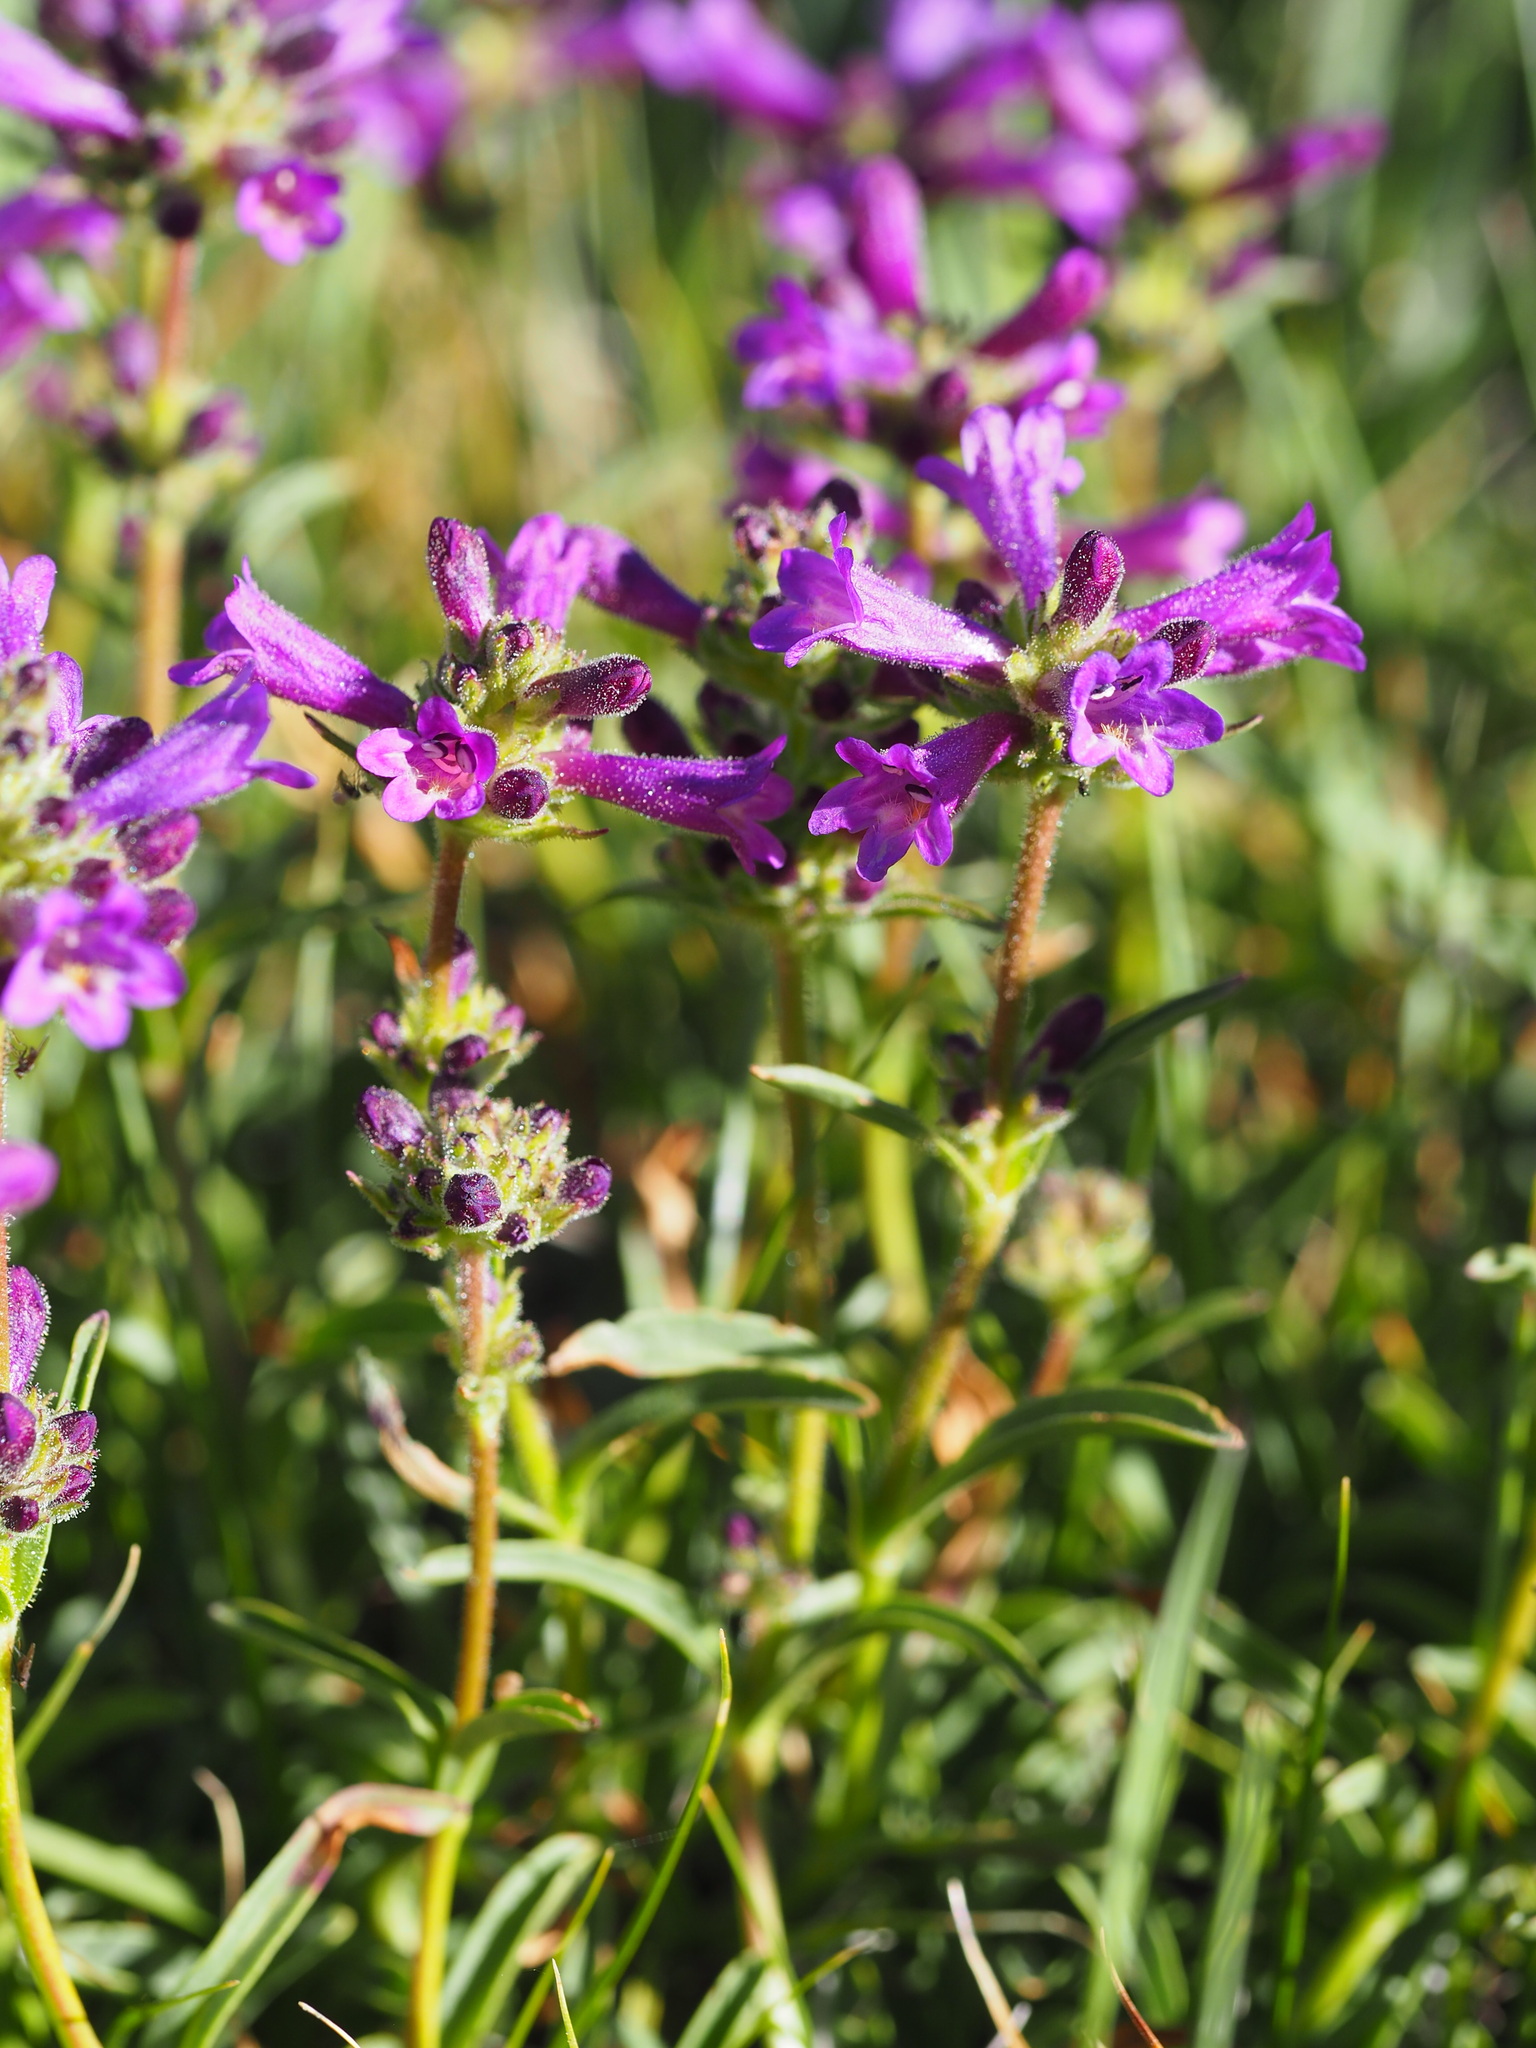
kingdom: Plantae
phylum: Tracheophyta
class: Magnoliopsida
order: Lamiales
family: Plantaginaceae
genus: Penstemon
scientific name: Penstemon heterodoxus
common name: Sierran penstemon
